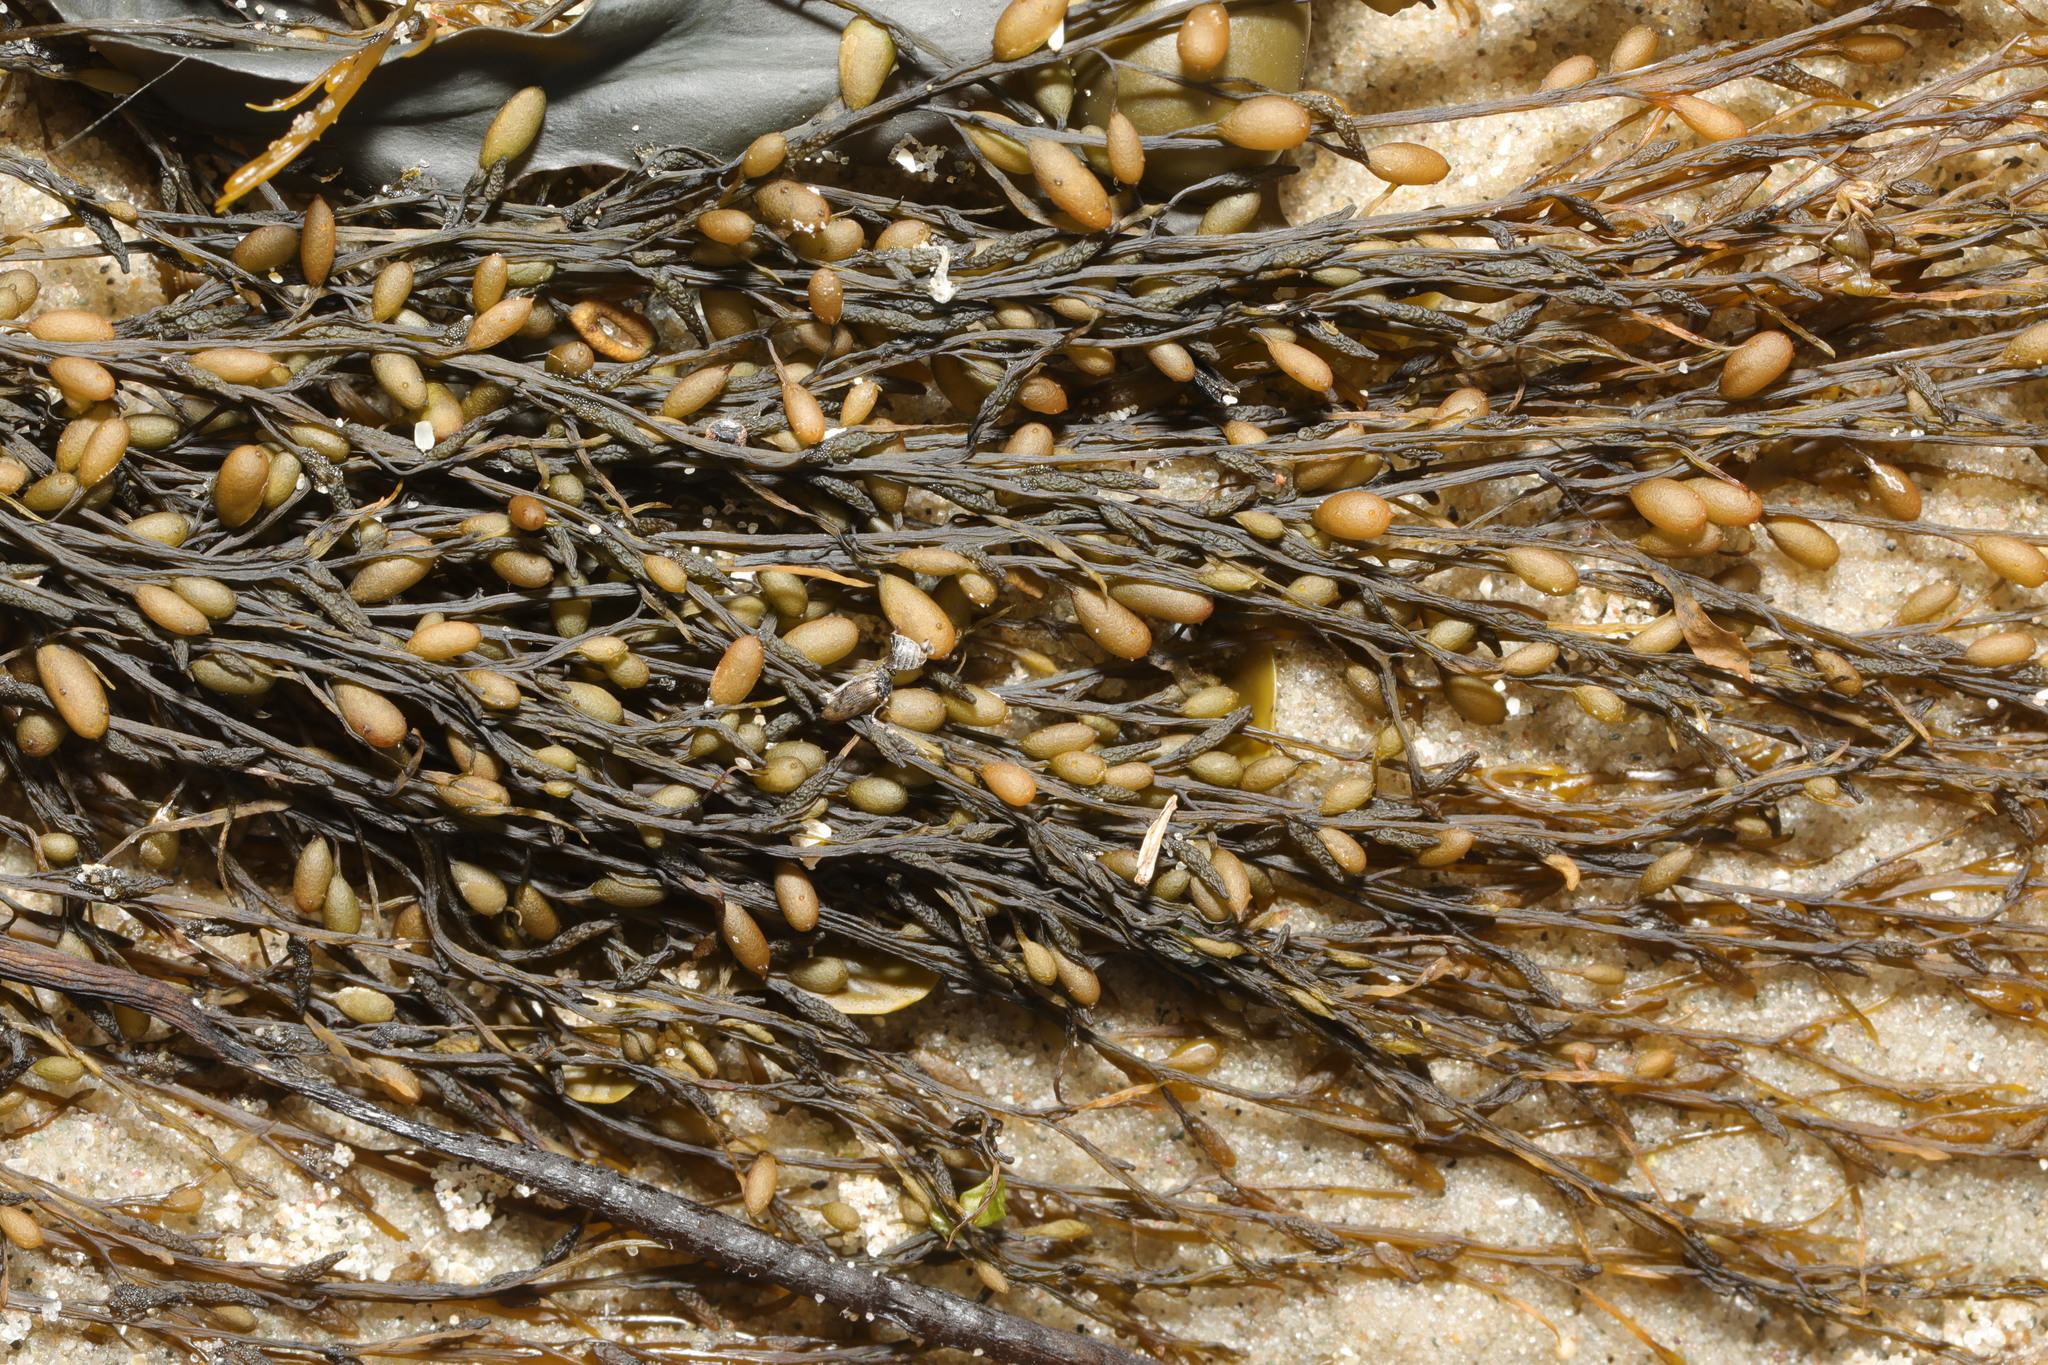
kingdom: Chromista
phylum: Ochrophyta
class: Phaeophyceae
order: Fucales
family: Sargassaceae
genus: Sargassum
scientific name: Sargassum muticum
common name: Japweed
